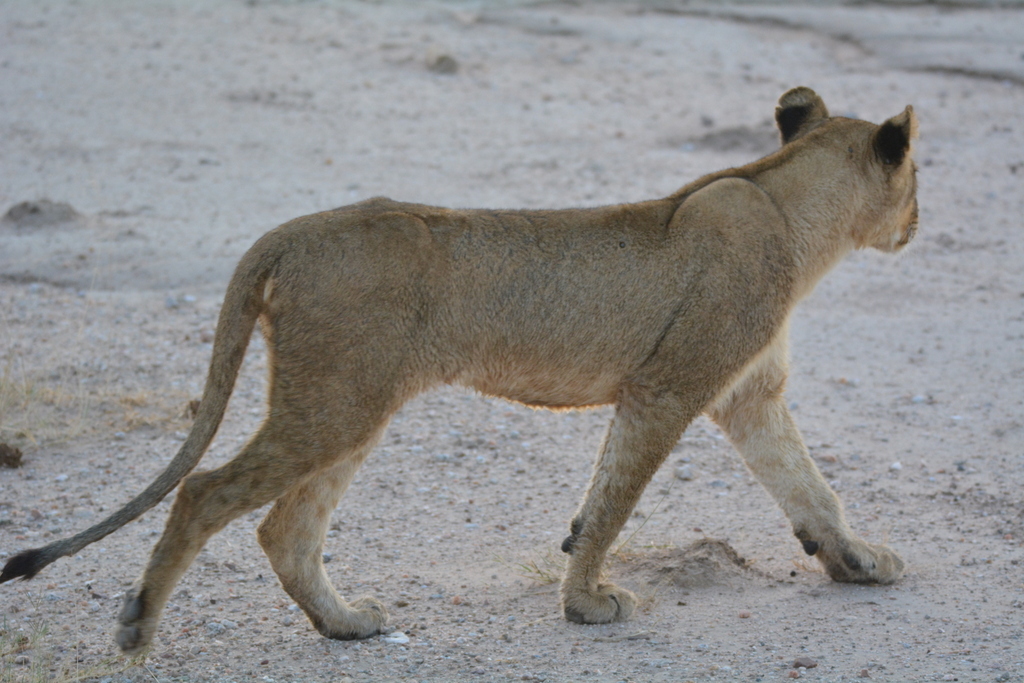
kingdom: Animalia
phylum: Chordata
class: Mammalia
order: Carnivora
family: Felidae
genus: Panthera
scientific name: Panthera leo
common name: Lion
